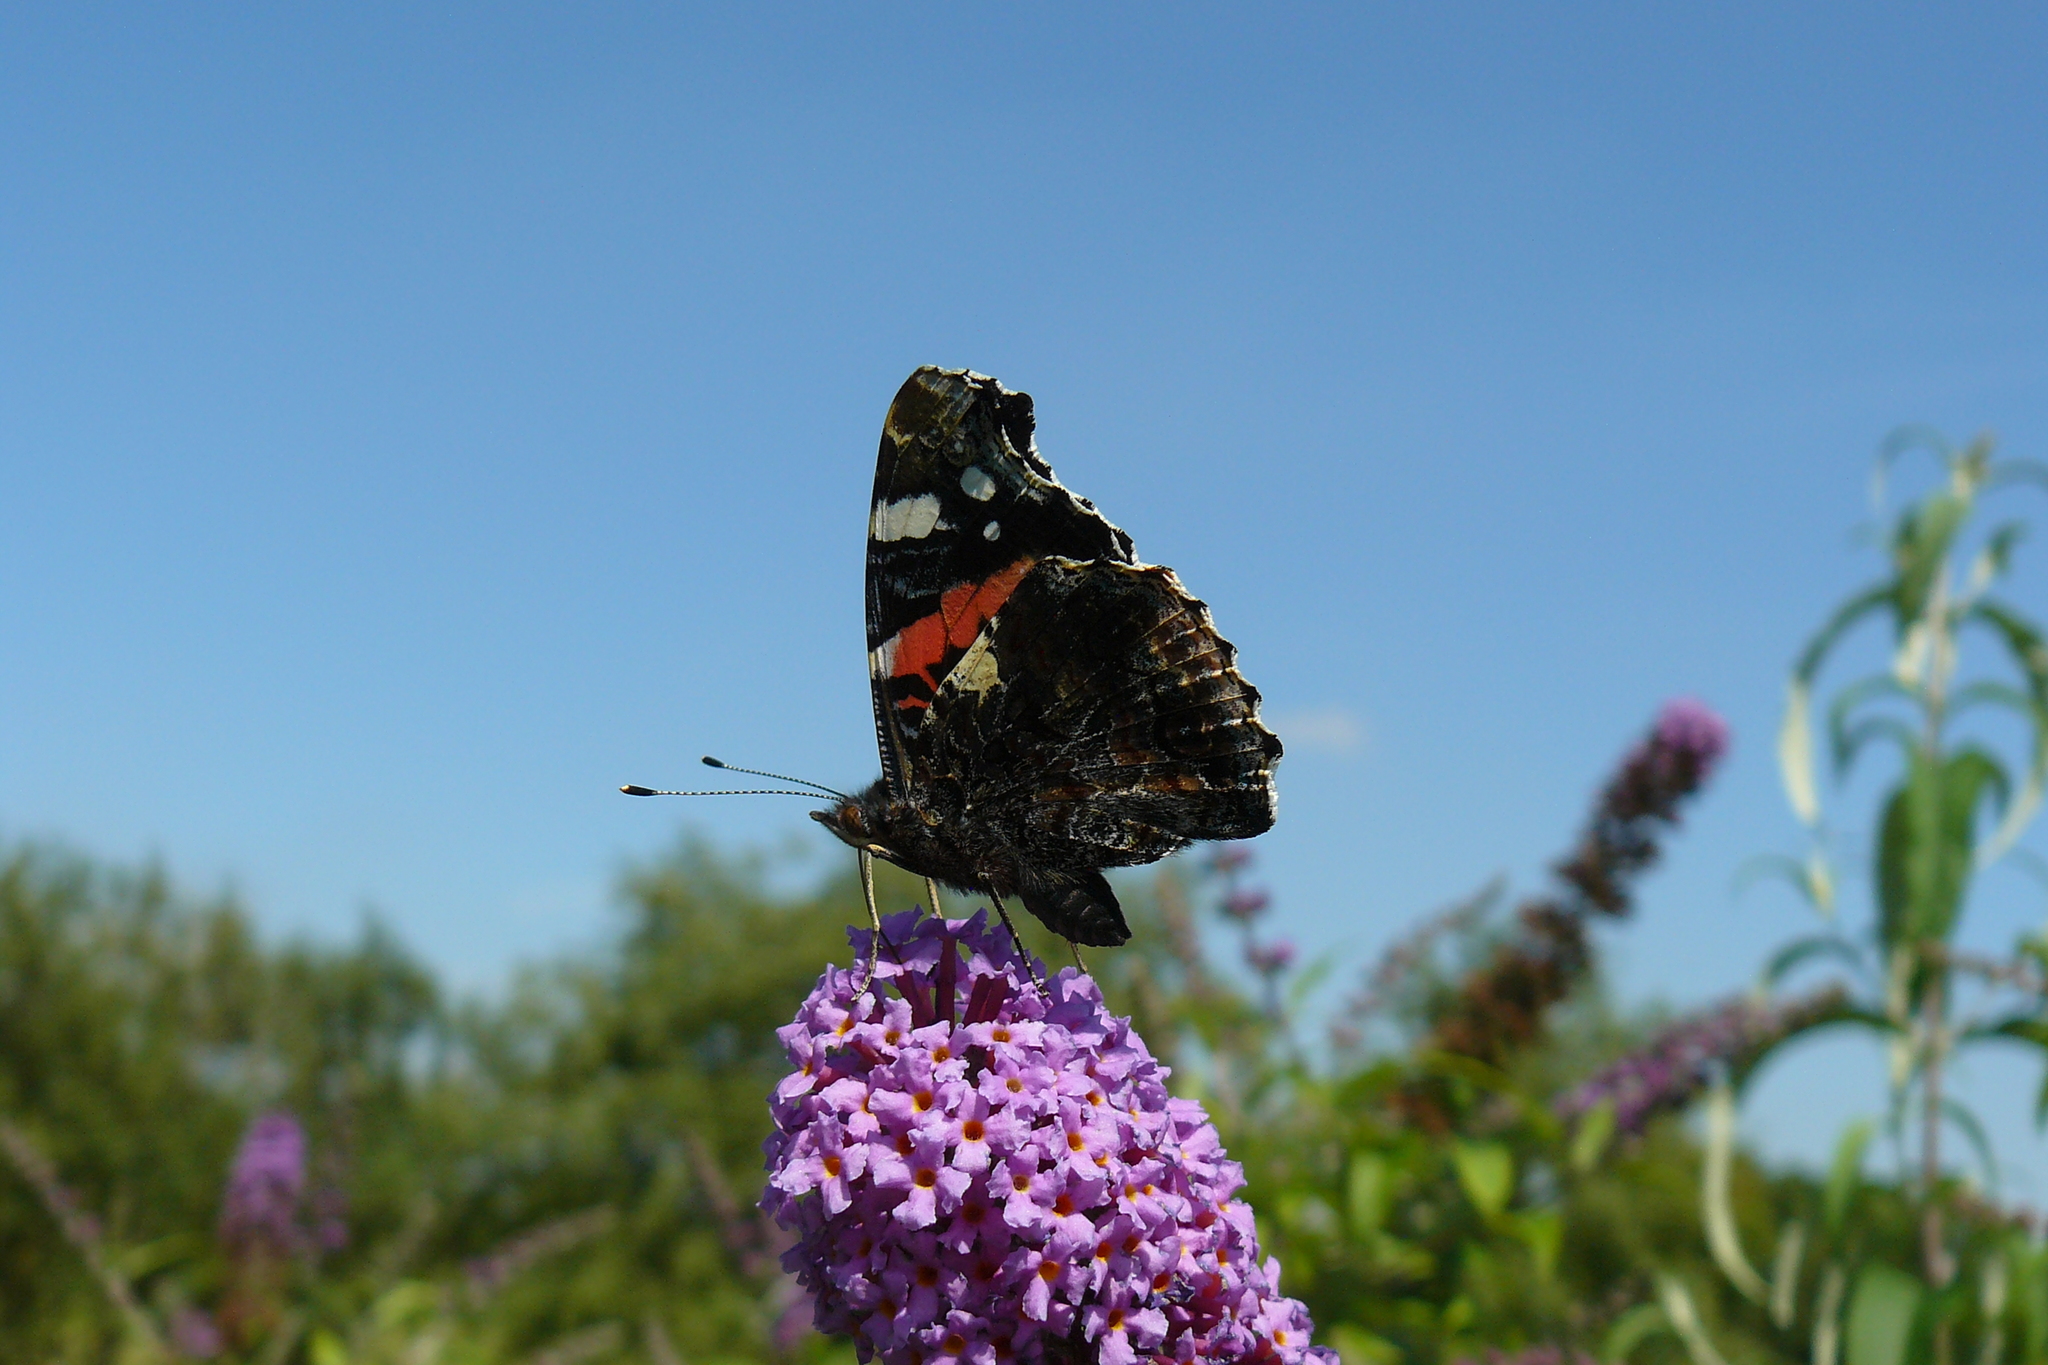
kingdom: Animalia
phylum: Arthropoda
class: Insecta
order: Lepidoptera
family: Nymphalidae
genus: Vanessa
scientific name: Vanessa atalanta
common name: Red admiral
